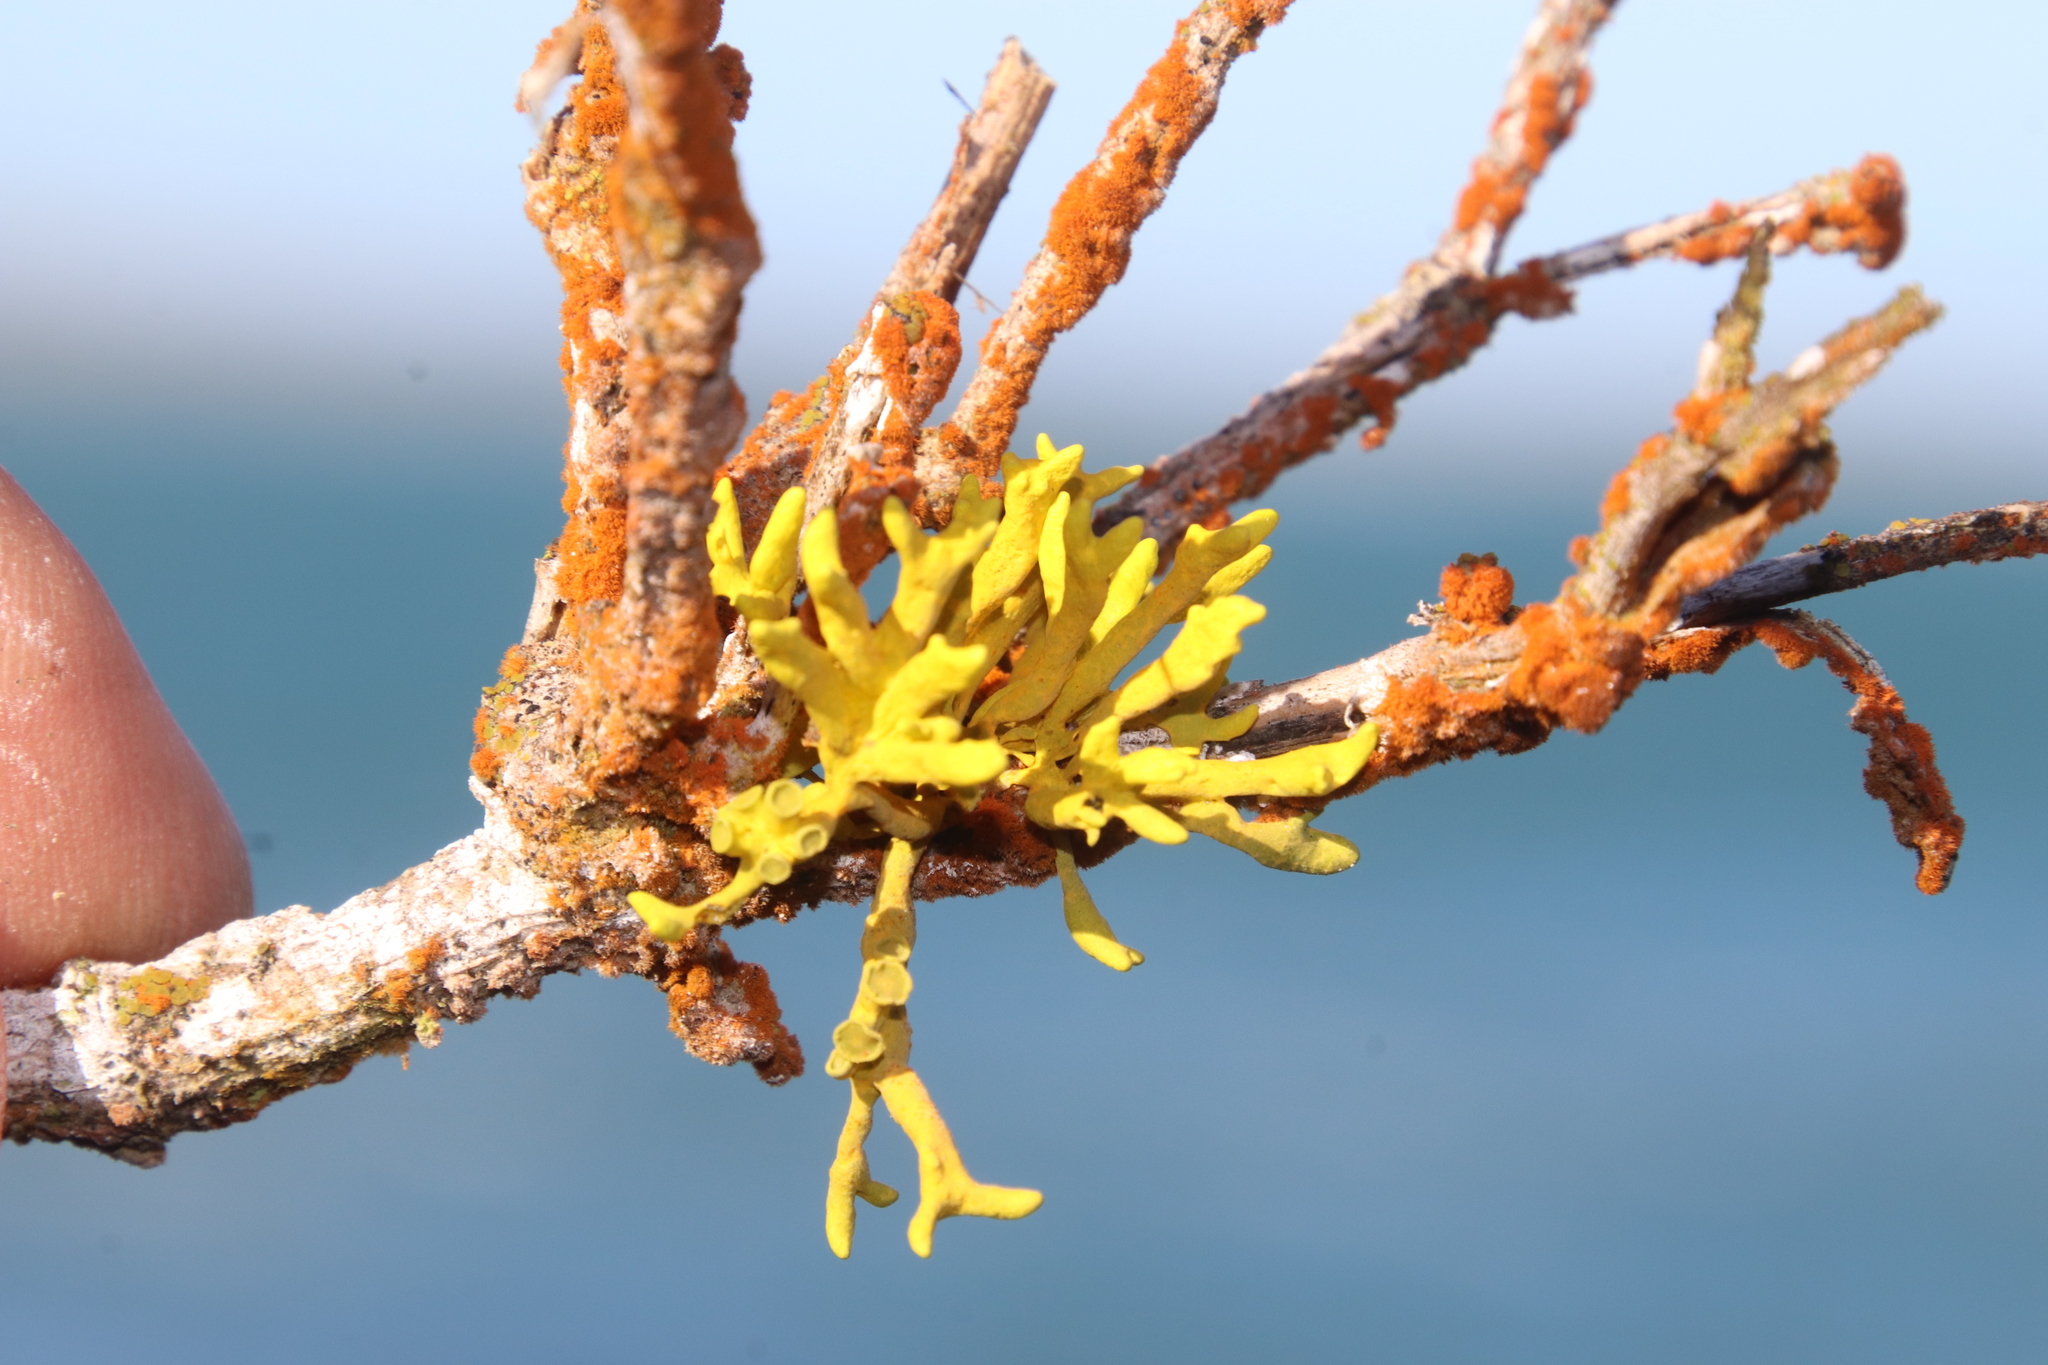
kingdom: Fungi
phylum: Ascomycota
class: Lecanoromycetes
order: Teloschistales
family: Teloschistaceae
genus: Dufourea
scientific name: Dufourea flammea
